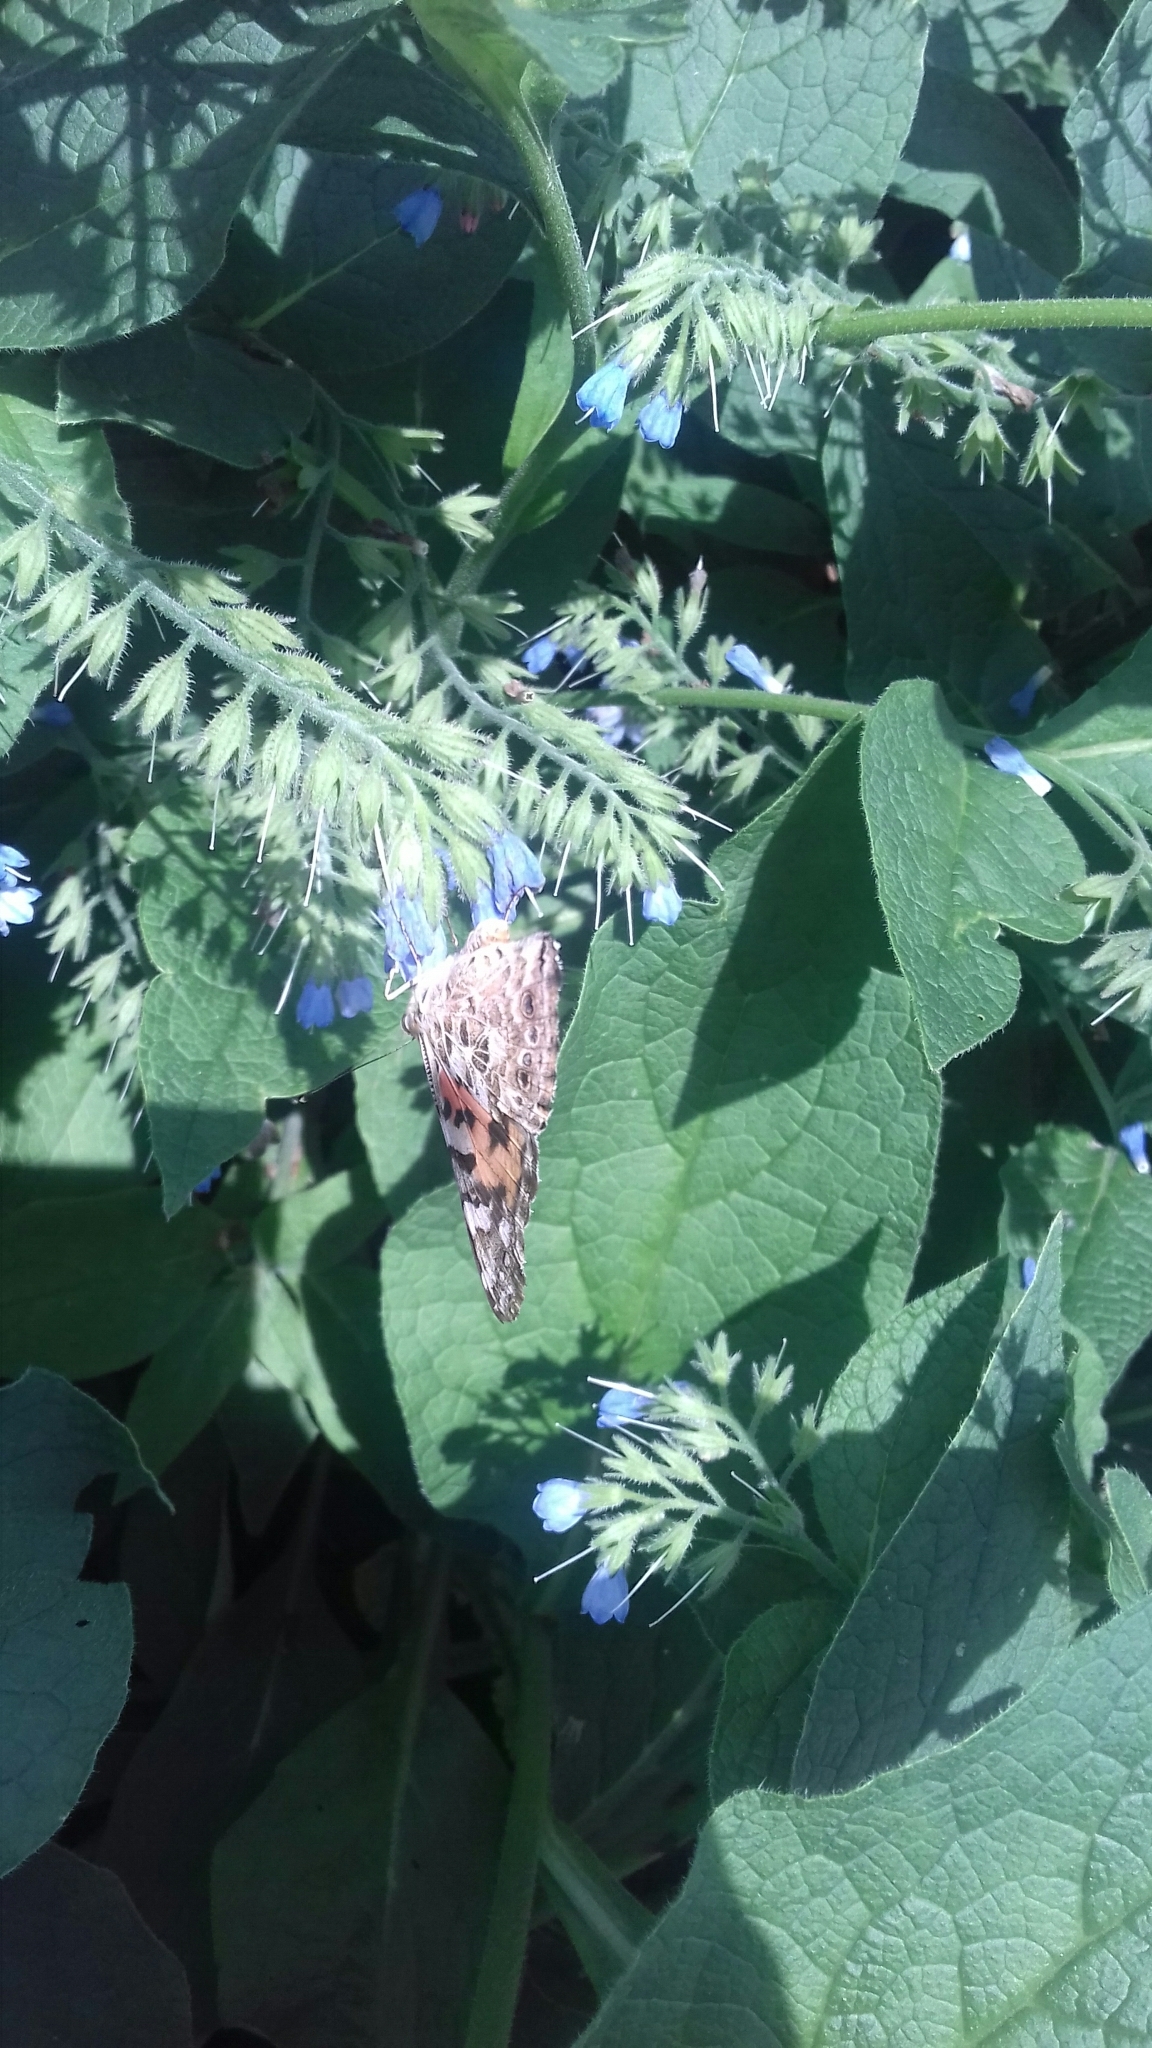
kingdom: Animalia
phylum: Arthropoda
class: Insecta
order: Lepidoptera
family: Nymphalidae
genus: Vanessa
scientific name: Vanessa cardui
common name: Painted lady
